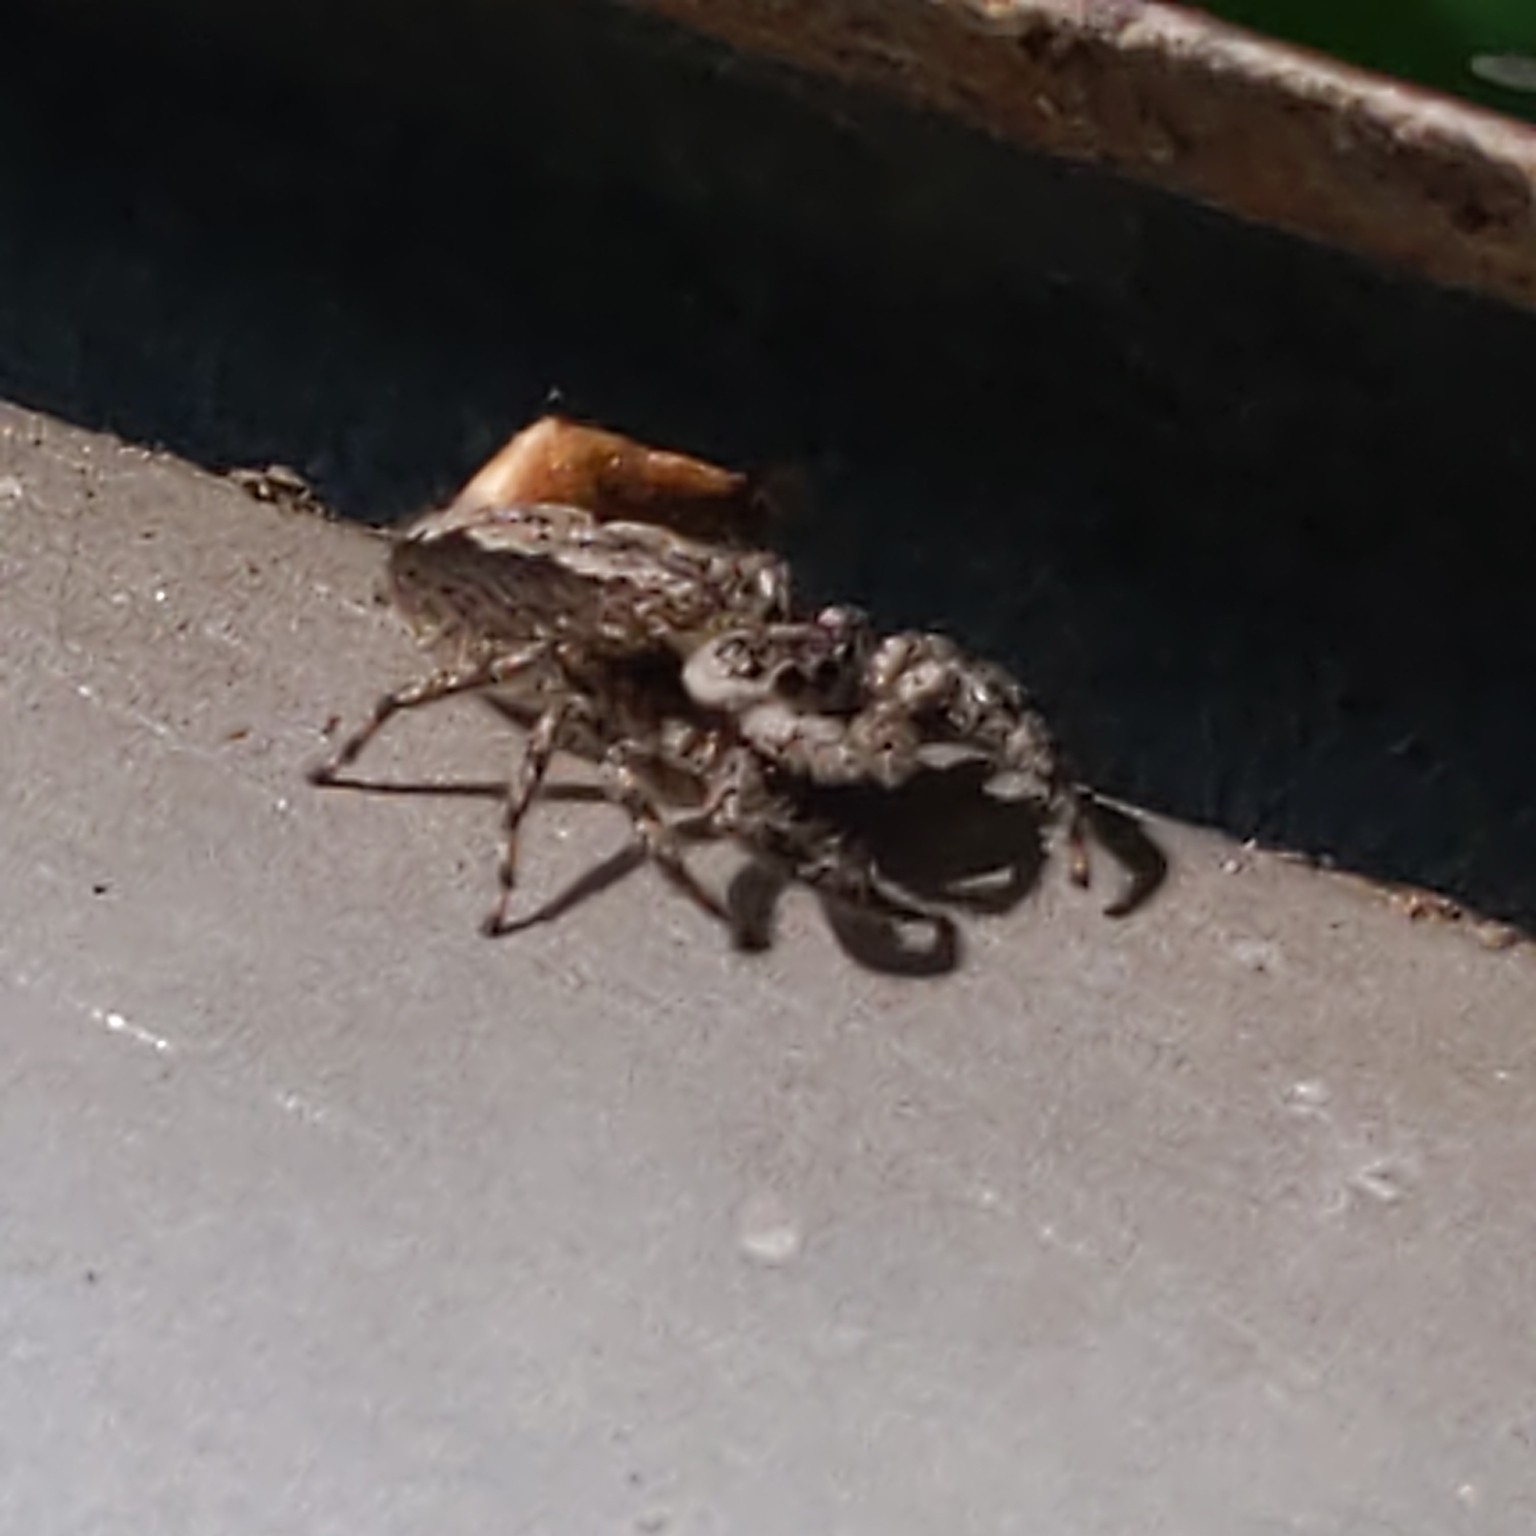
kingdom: Animalia
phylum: Arthropoda
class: Arachnida
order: Araneae
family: Salticidae
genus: Platycryptus
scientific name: Platycryptus undatus
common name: Tan jumping spider
